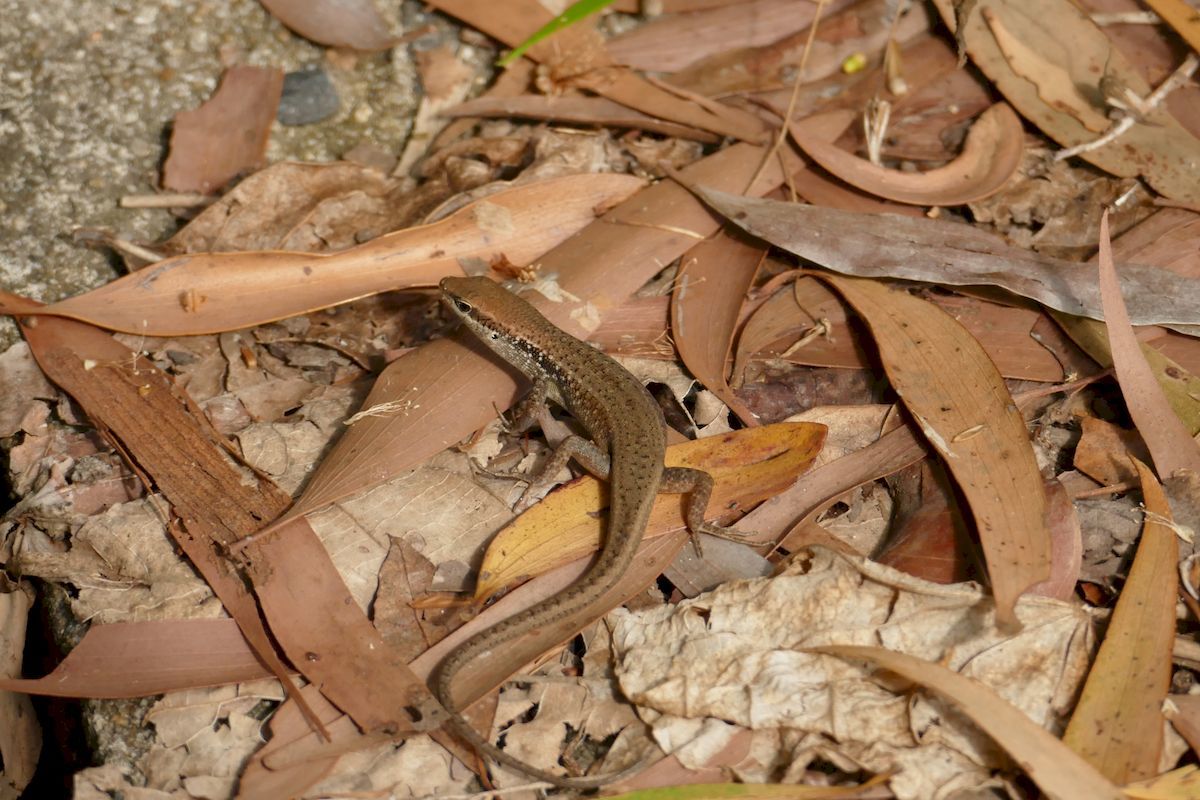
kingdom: Animalia
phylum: Chordata
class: Squamata
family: Scincidae
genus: Carlia
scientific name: Carlia longipes
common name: Closed-litter rainbow-skink
